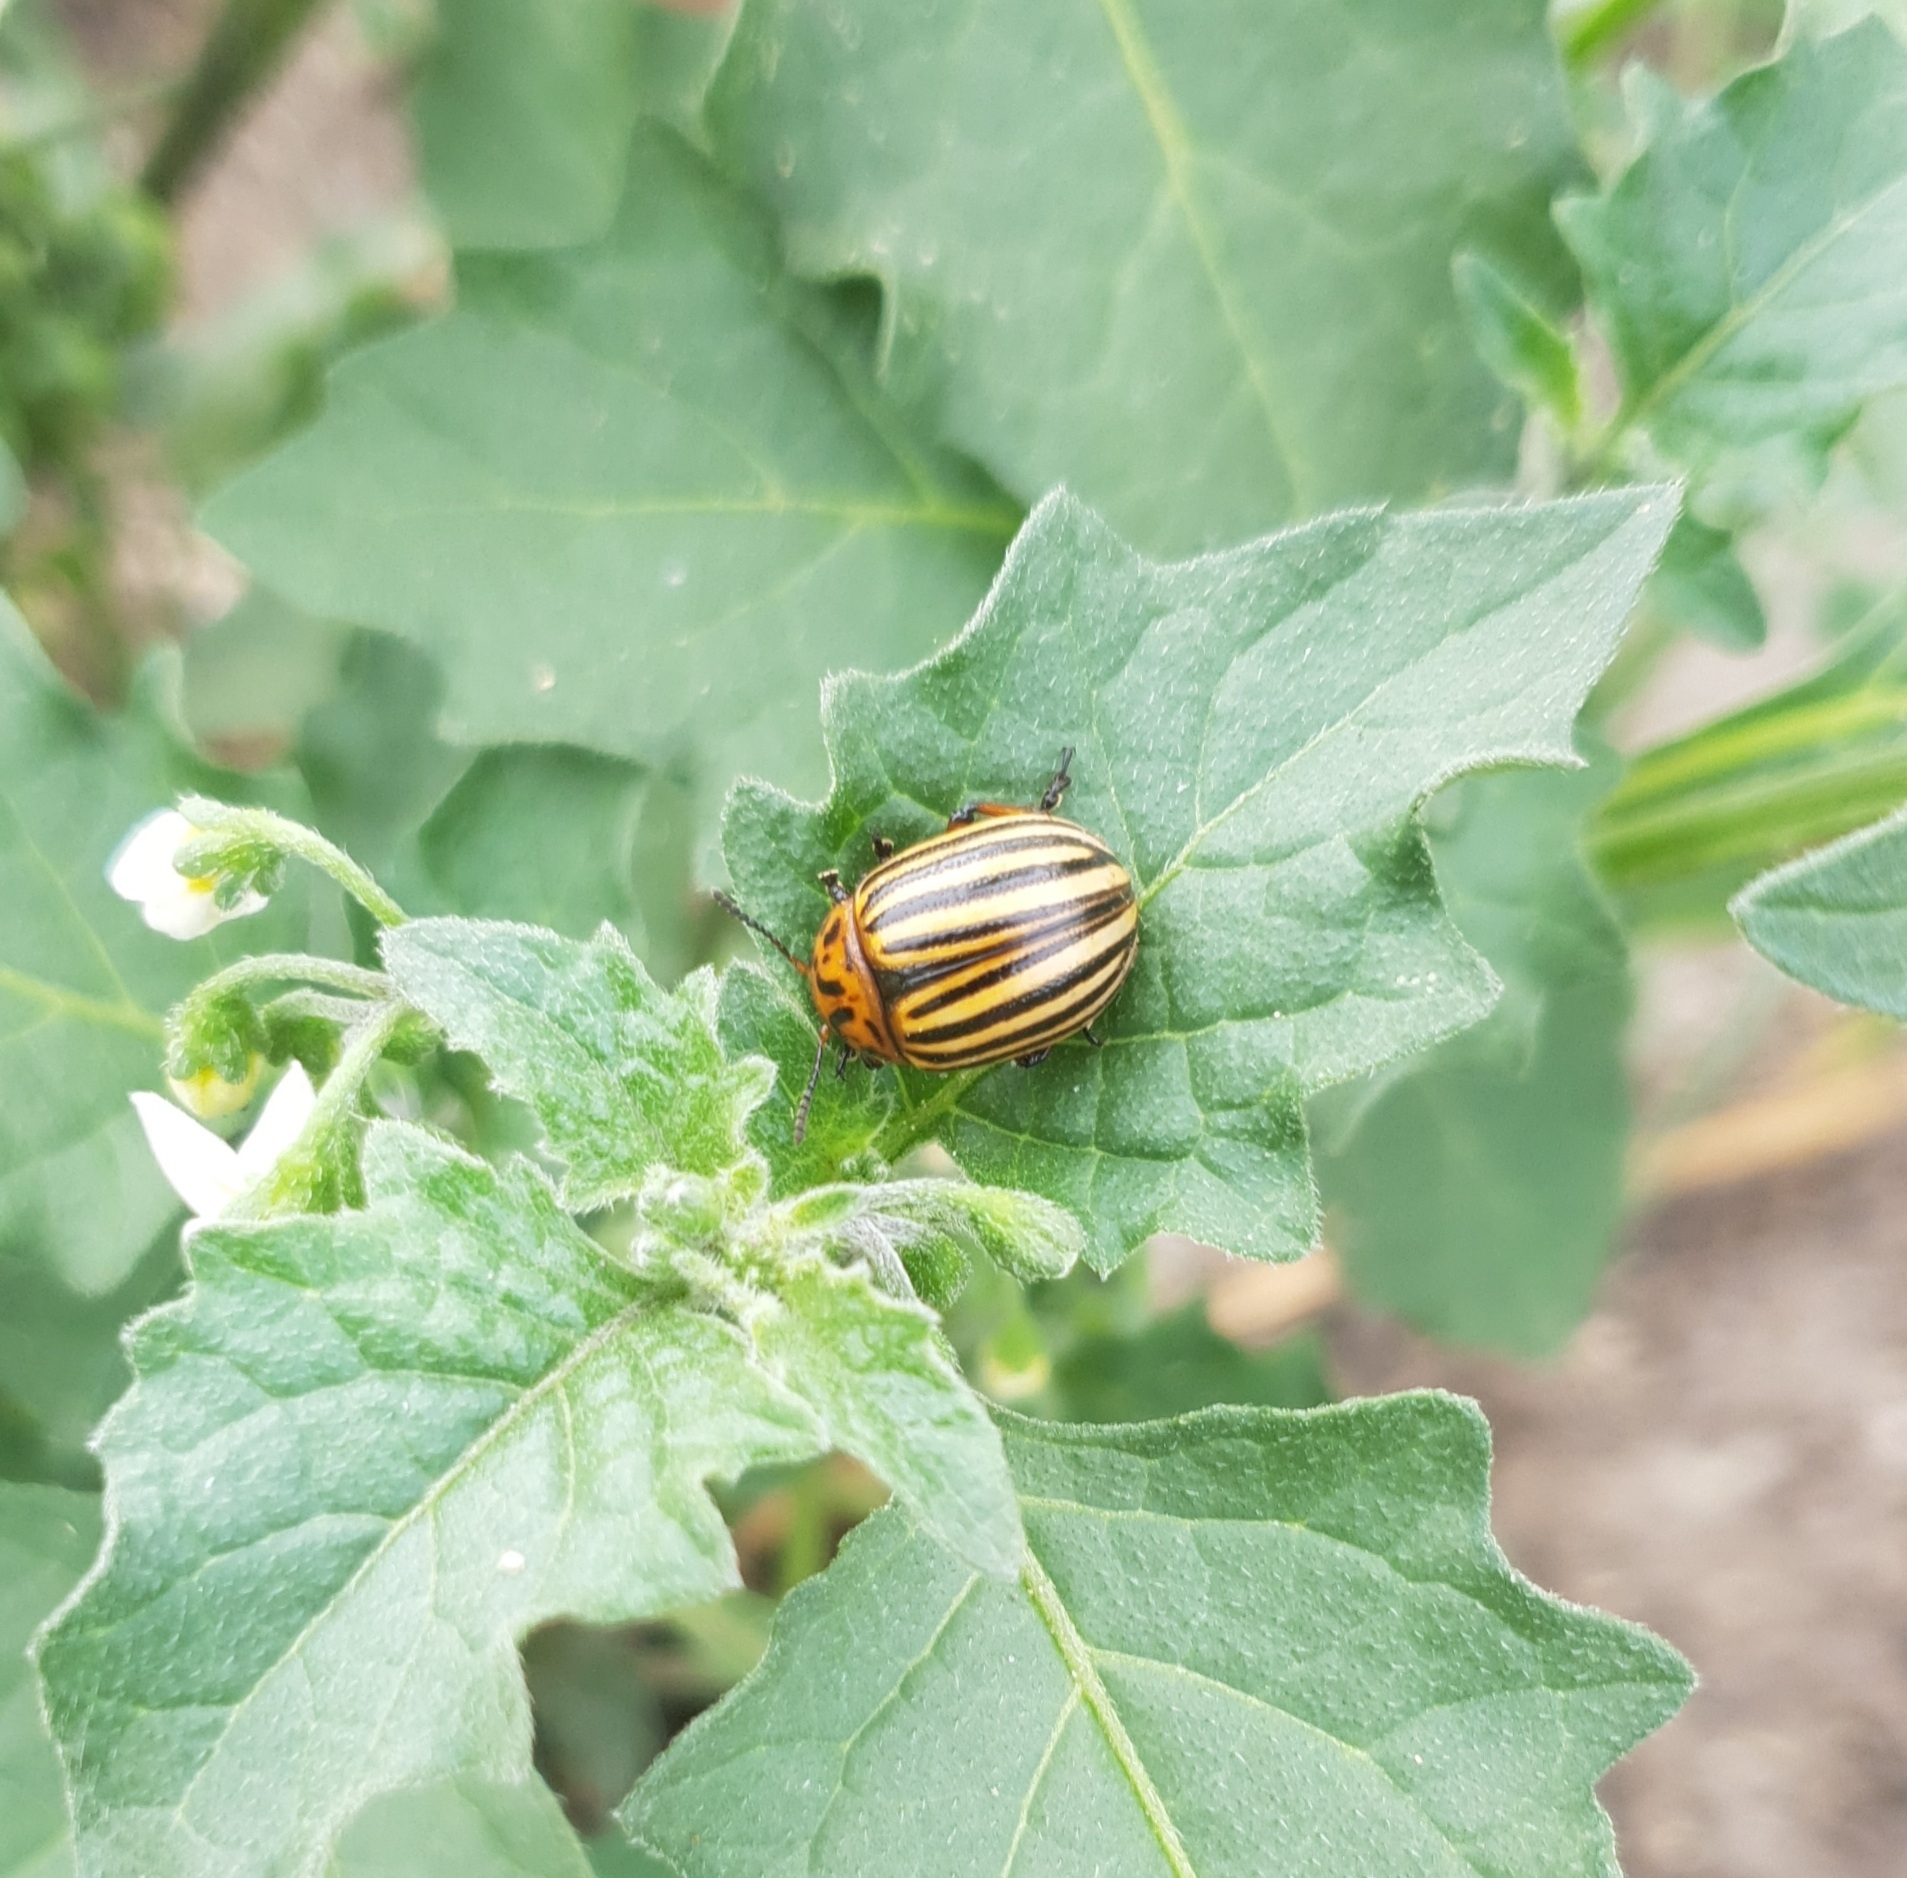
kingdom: Animalia
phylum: Arthropoda
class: Insecta
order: Coleoptera
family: Chrysomelidae
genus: Leptinotarsa
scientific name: Leptinotarsa decemlineata
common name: Colorado potato beetle
